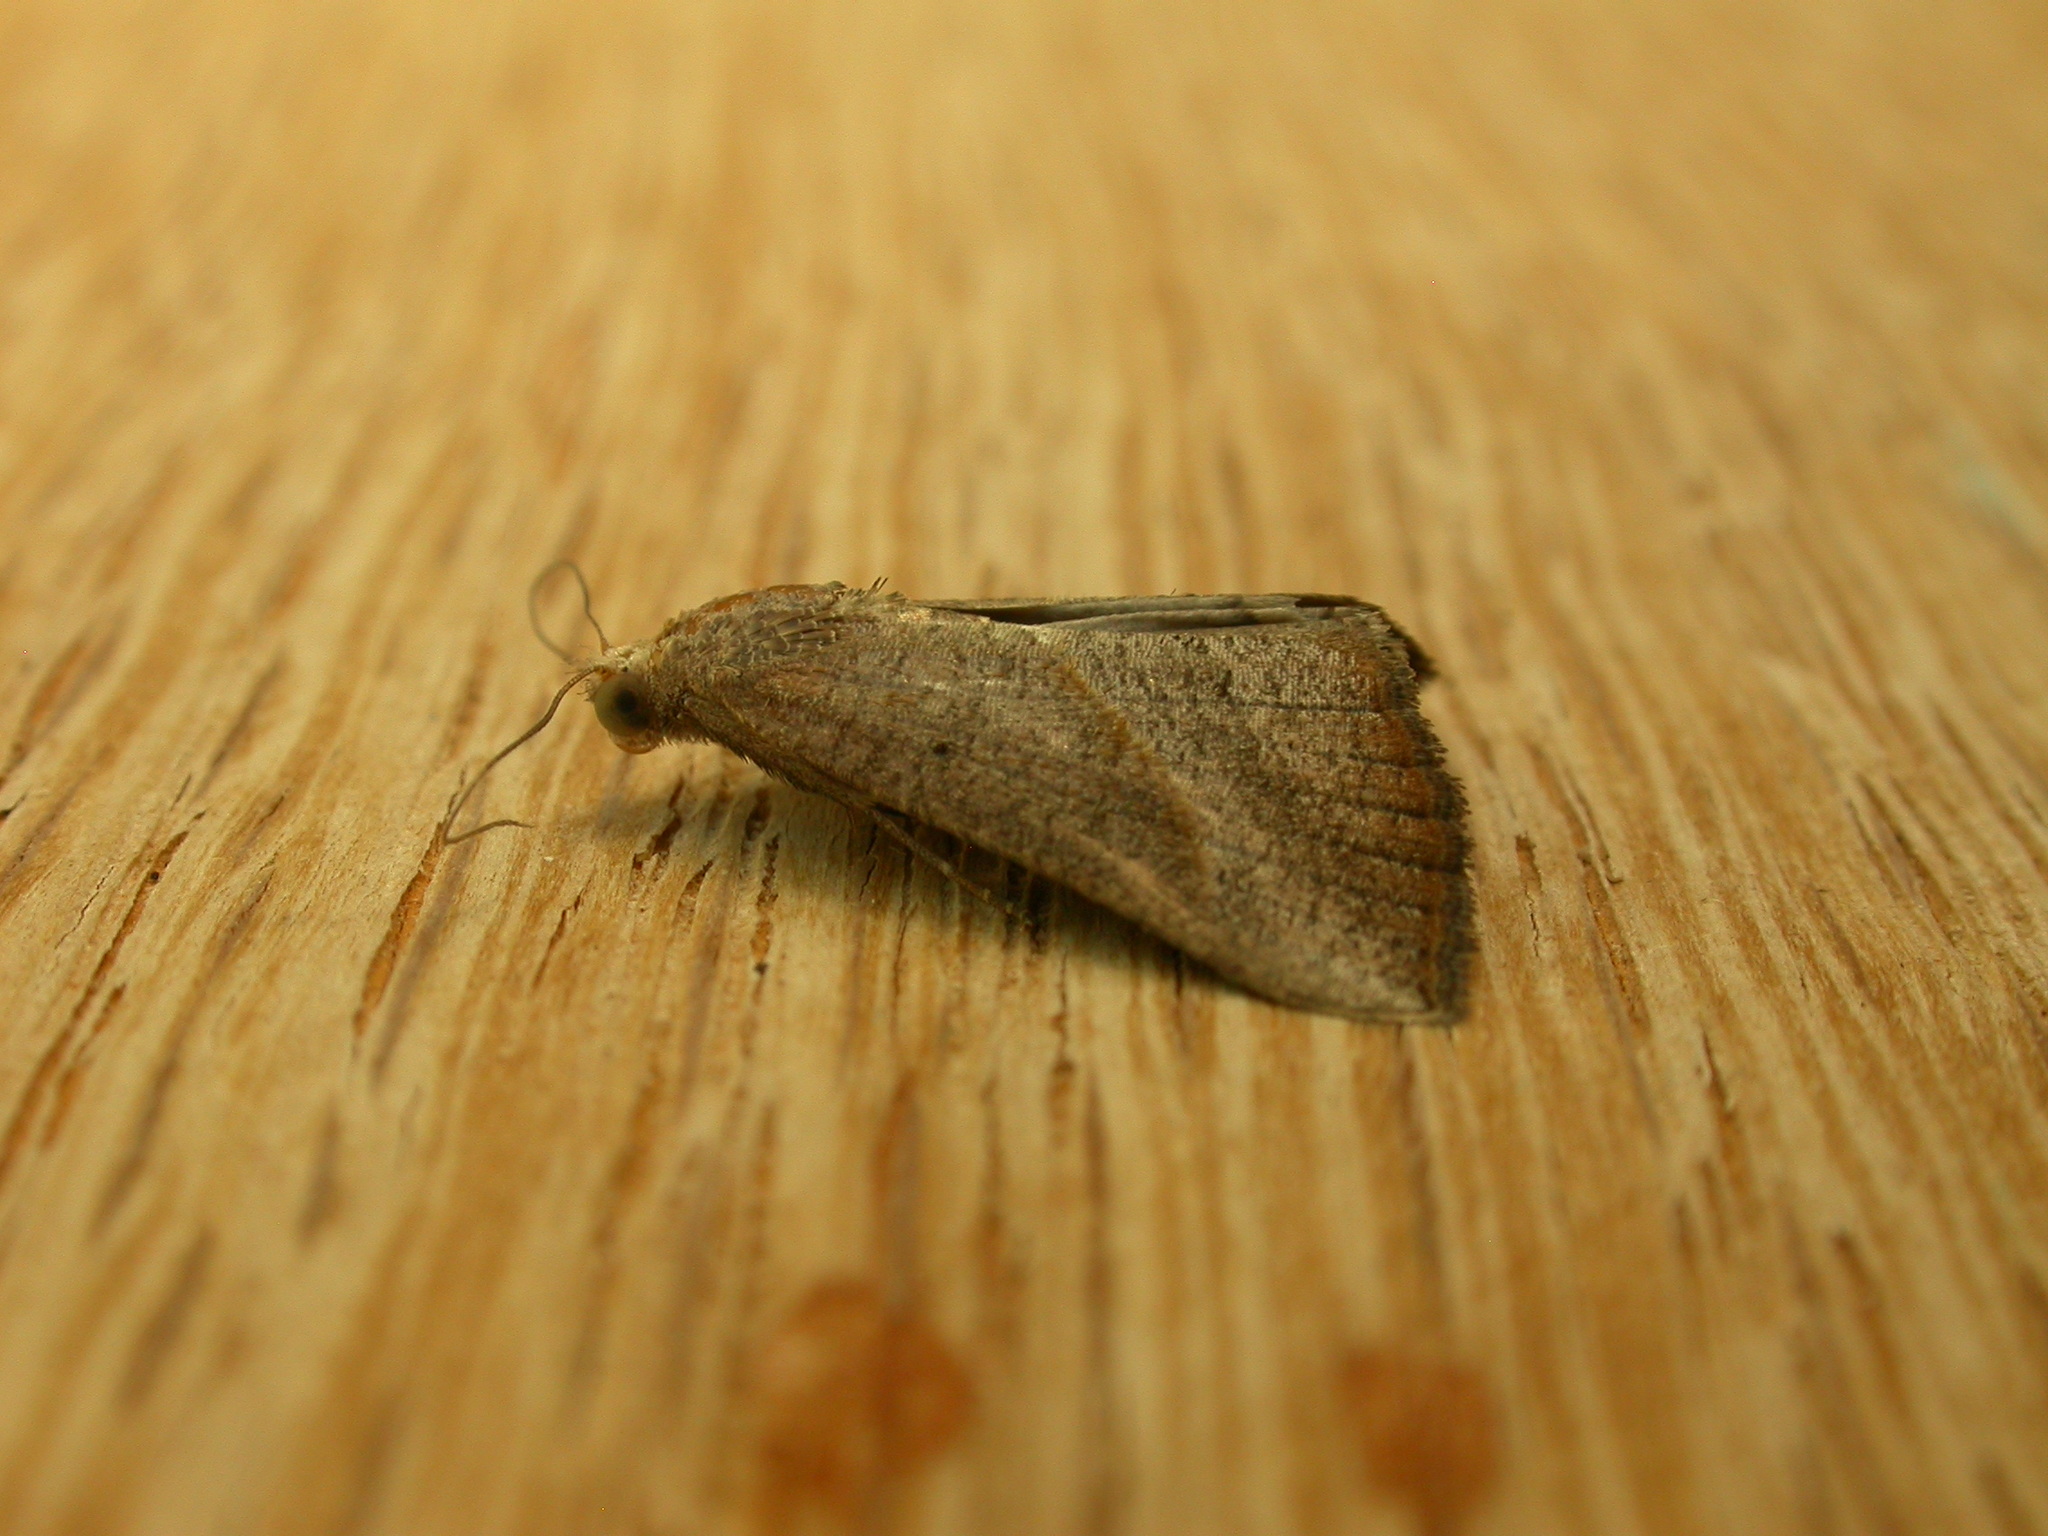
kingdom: Animalia
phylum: Arthropoda
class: Insecta
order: Lepidoptera
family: Erebidae
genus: Hypena
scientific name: Hypena lividalis
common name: Chevron snout
